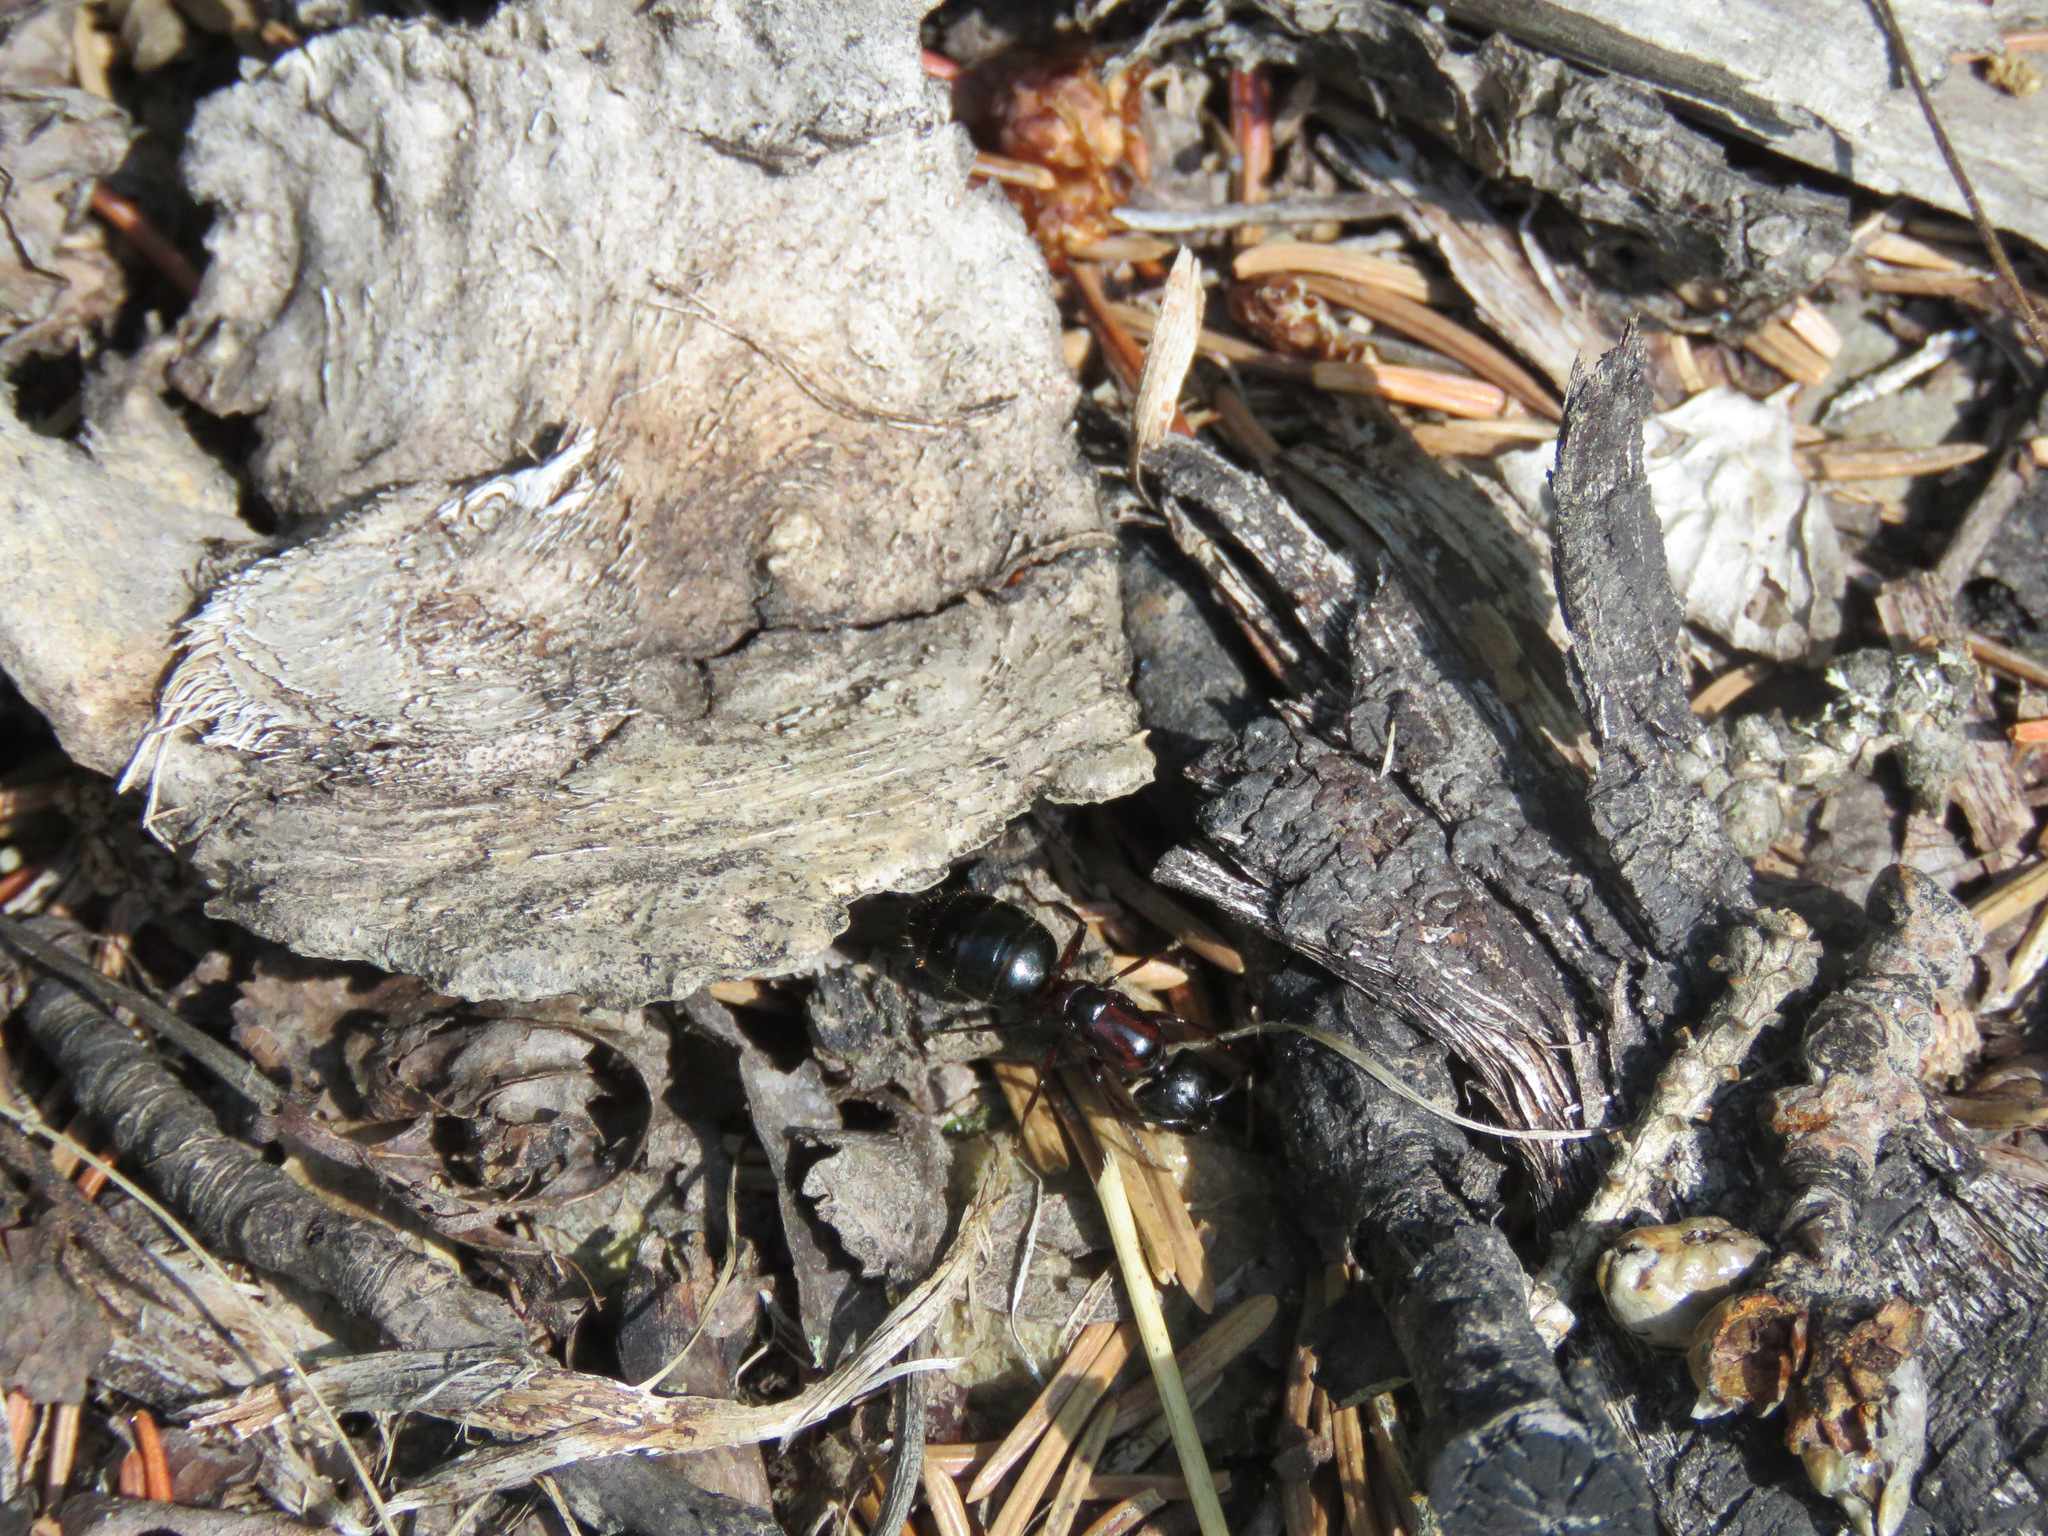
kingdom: Animalia
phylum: Arthropoda
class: Insecta
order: Hymenoptera
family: Formicidae
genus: Camponotus
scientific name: Camponotus novaeboracensis
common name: New york carpenter ant
